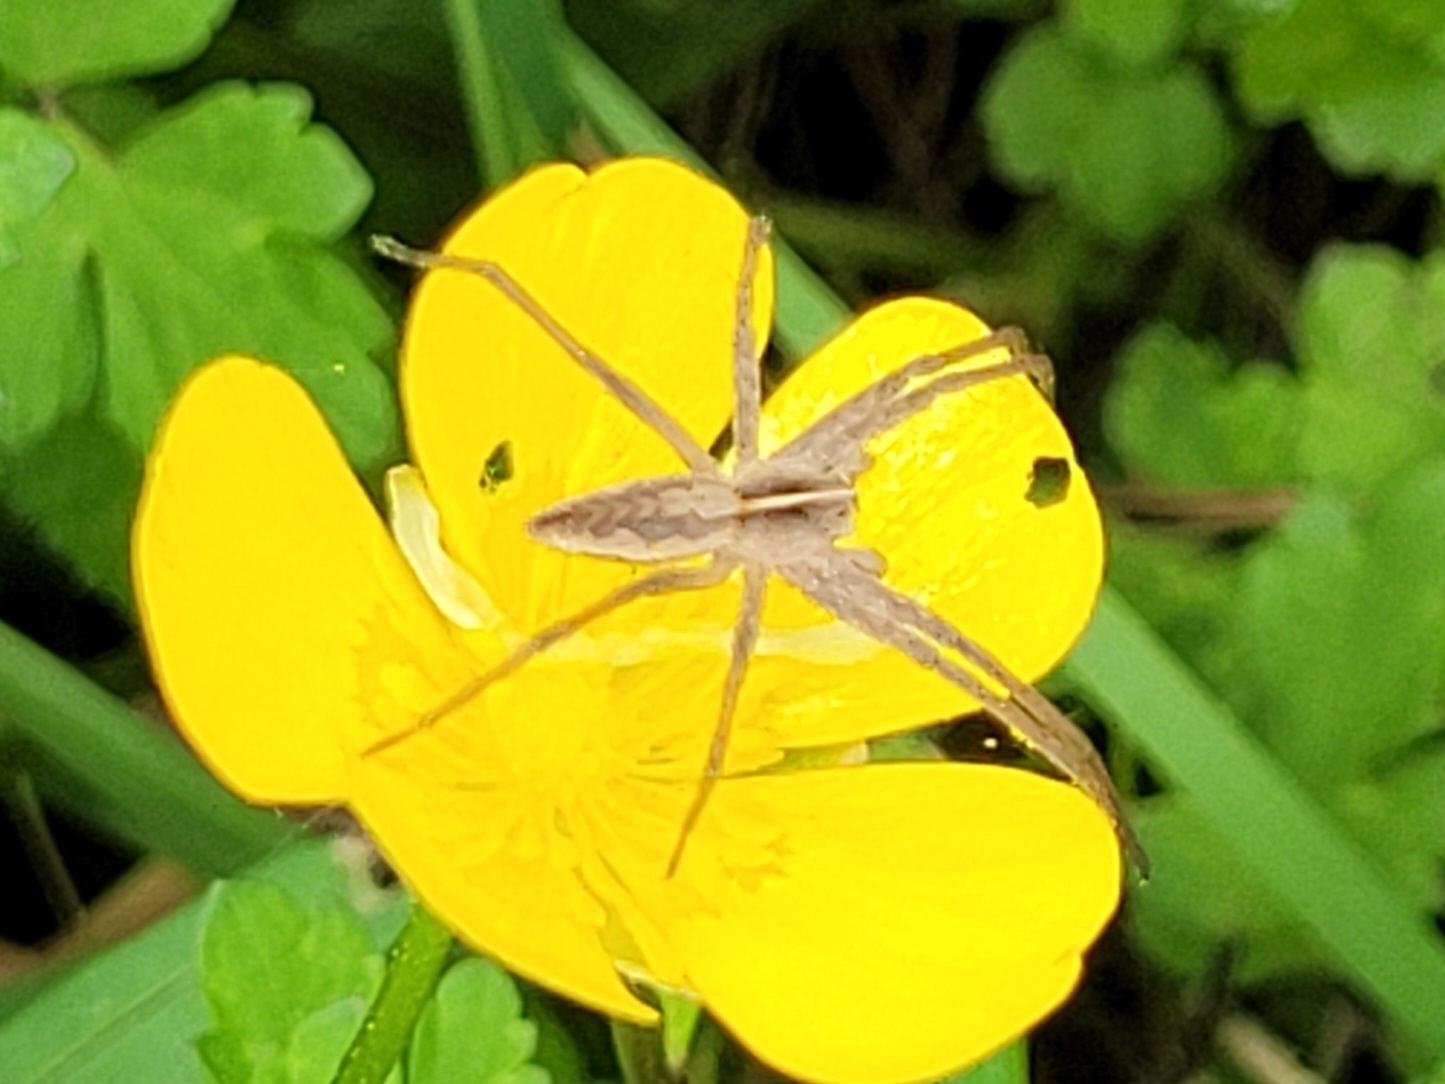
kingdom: Animalia
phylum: Arthropoda
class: Arachnida
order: Araneae
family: Pisauridae
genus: Pisaura
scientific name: Pisaura mirabilis
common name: Tent spider
